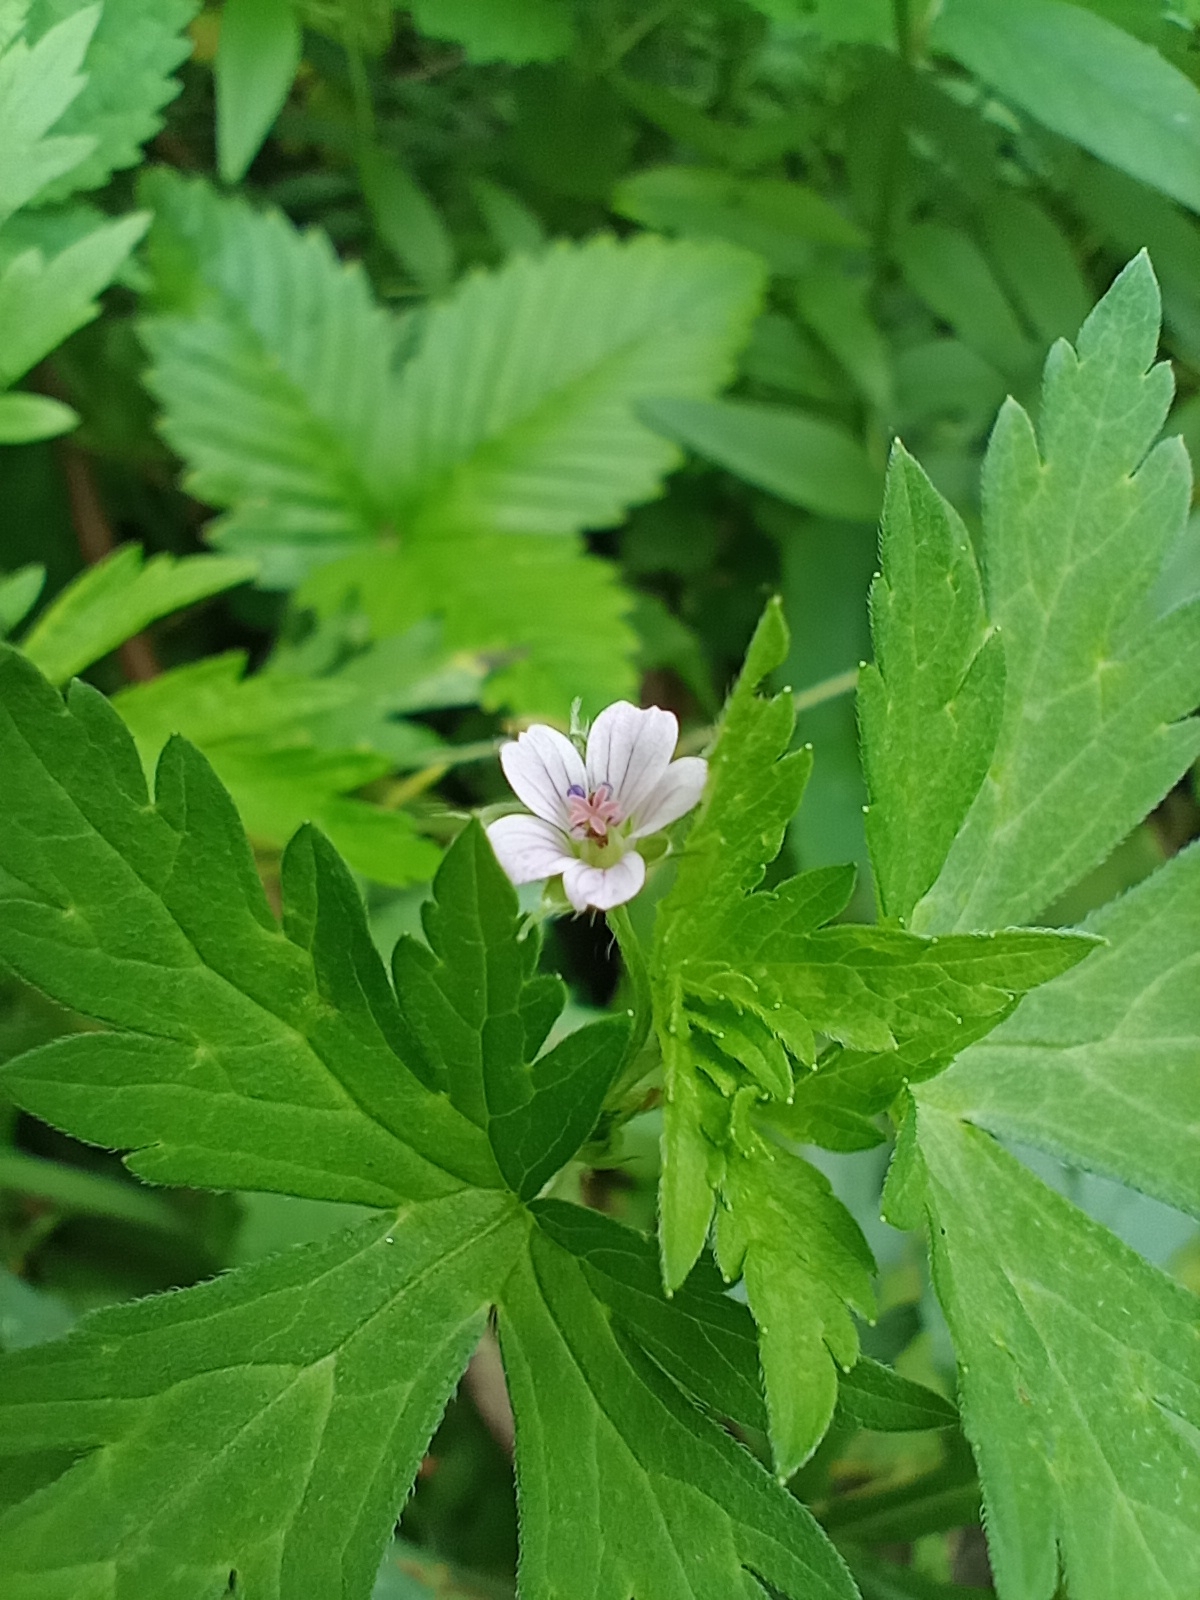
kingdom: Plantae
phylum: Tracheophyta
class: Magnoliopsida
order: Geraniales
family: Geraniaceae
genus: Geranium
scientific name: Geranium sibiricum
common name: Siberian crane's-bill
